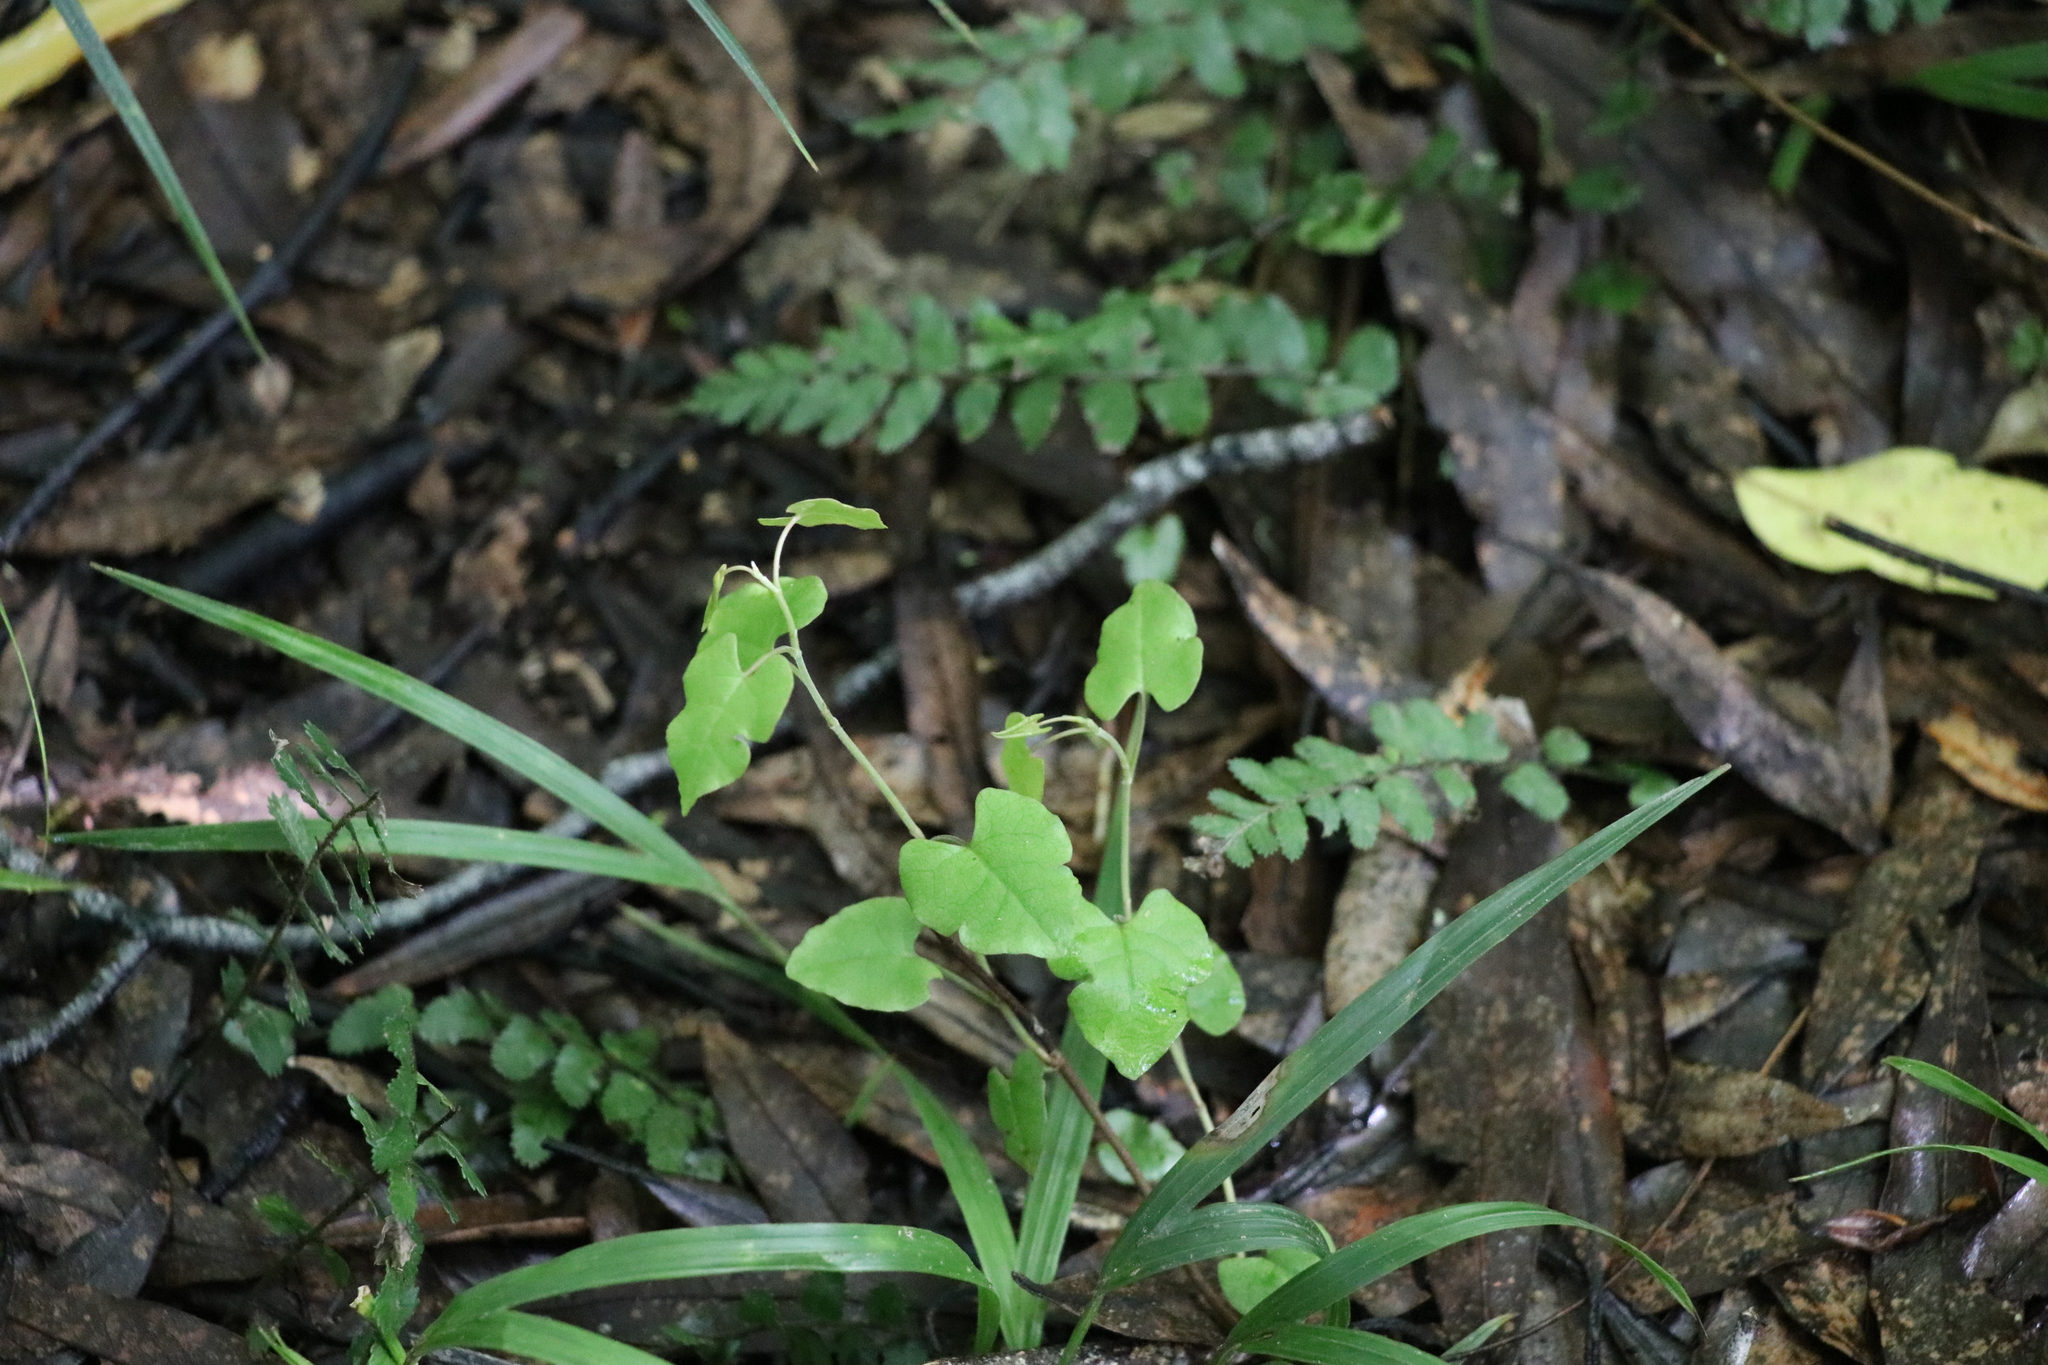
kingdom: Plantae
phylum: Tracheophyta
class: Magnoliopsida
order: Caryophyllales
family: Polygonaceae
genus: Muehlenbeckia
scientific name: Muehlenbeckia australis
